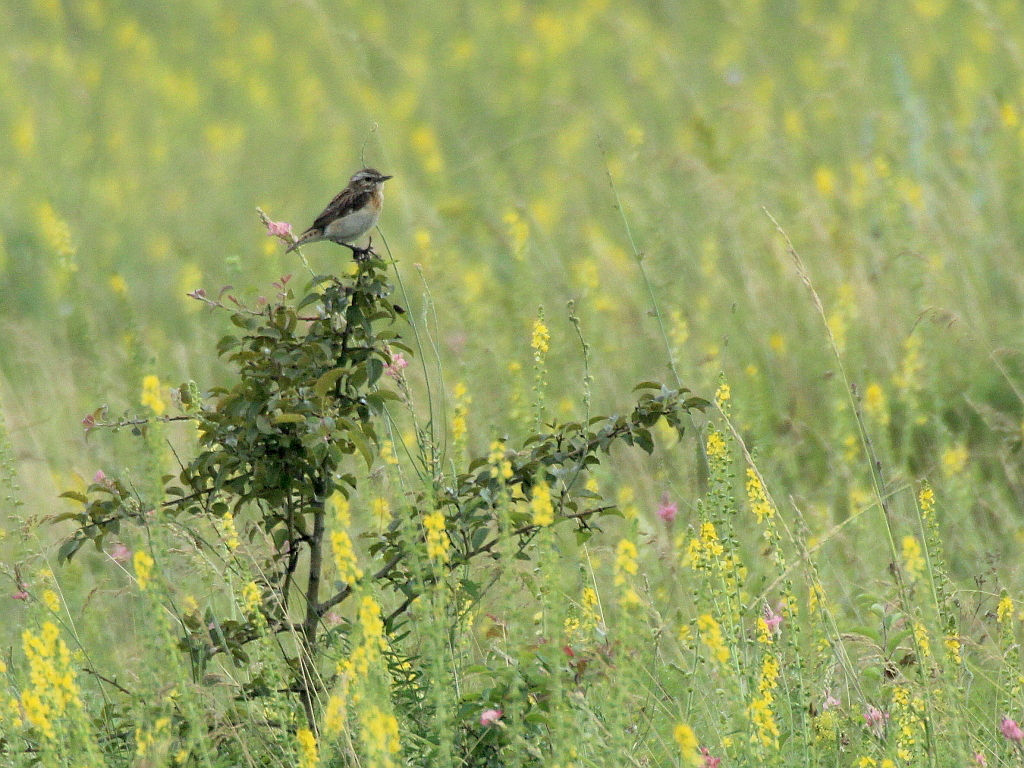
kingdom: Animalia
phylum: Chordata
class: Aves
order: Passeriformes
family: Muscicapidae
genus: Saxicola
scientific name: Saxicola rubetra
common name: Whinchat
